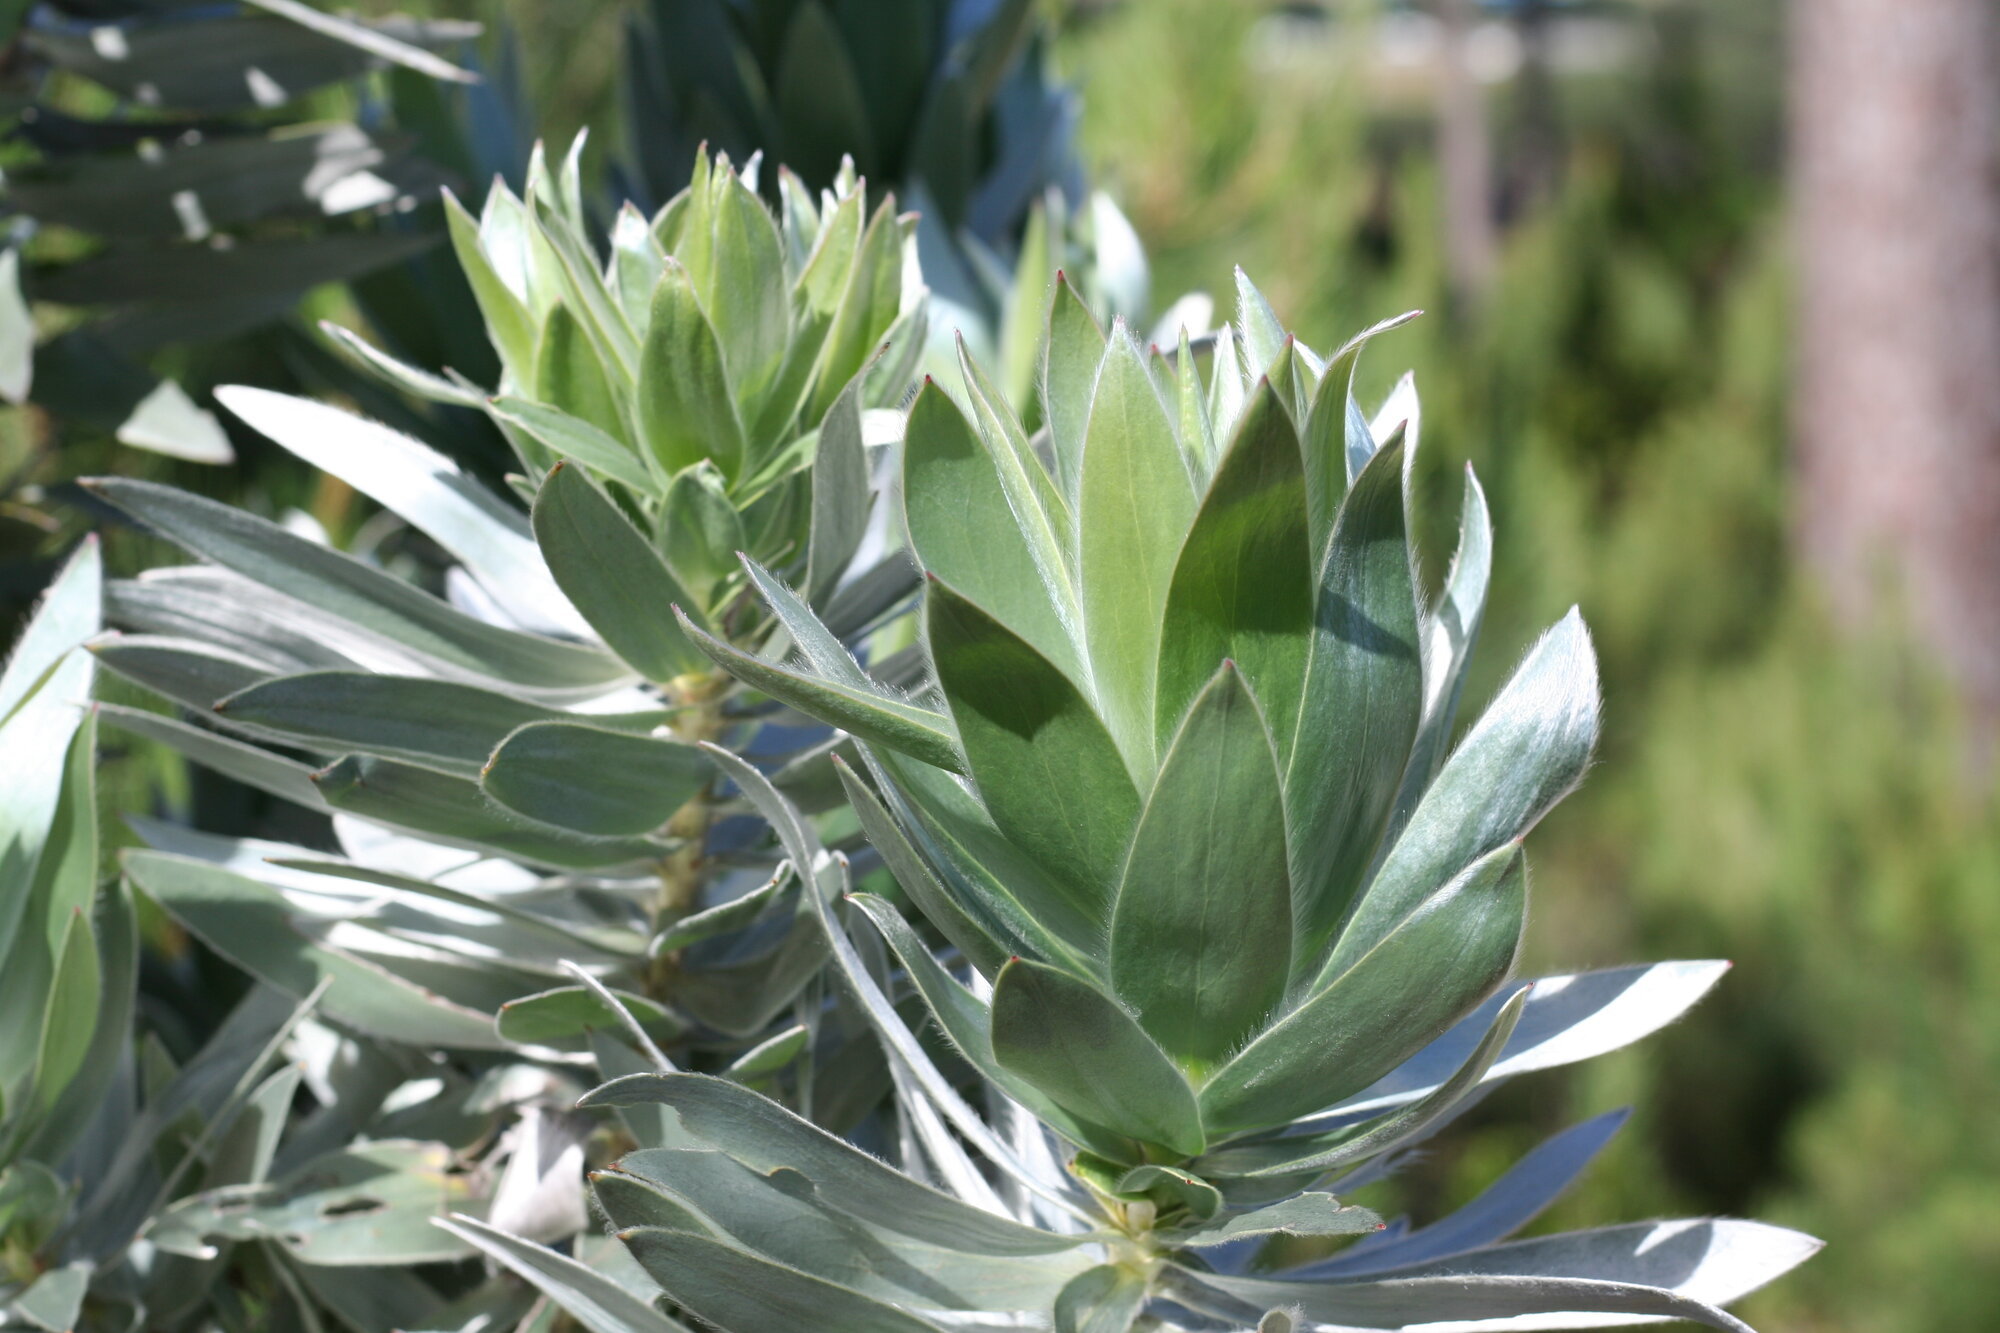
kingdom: Plantae
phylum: Tracheophyta
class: Magnoliopsida
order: Proteales
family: Proteaceae
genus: Leucadendron
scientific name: Leucadendron argenteum
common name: Cape silver tree
